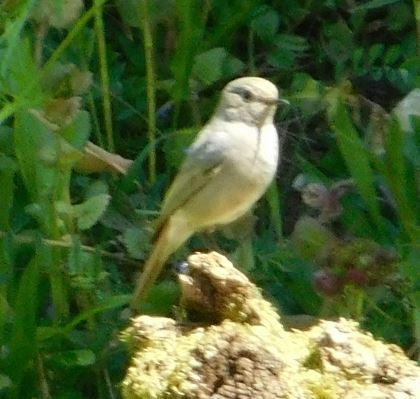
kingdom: Animalia
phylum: Chordata
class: Aves
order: Passeriformes
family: Muscicapidae
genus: Phoenicurus
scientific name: Phoenicurus ochruros
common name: Black redstart
